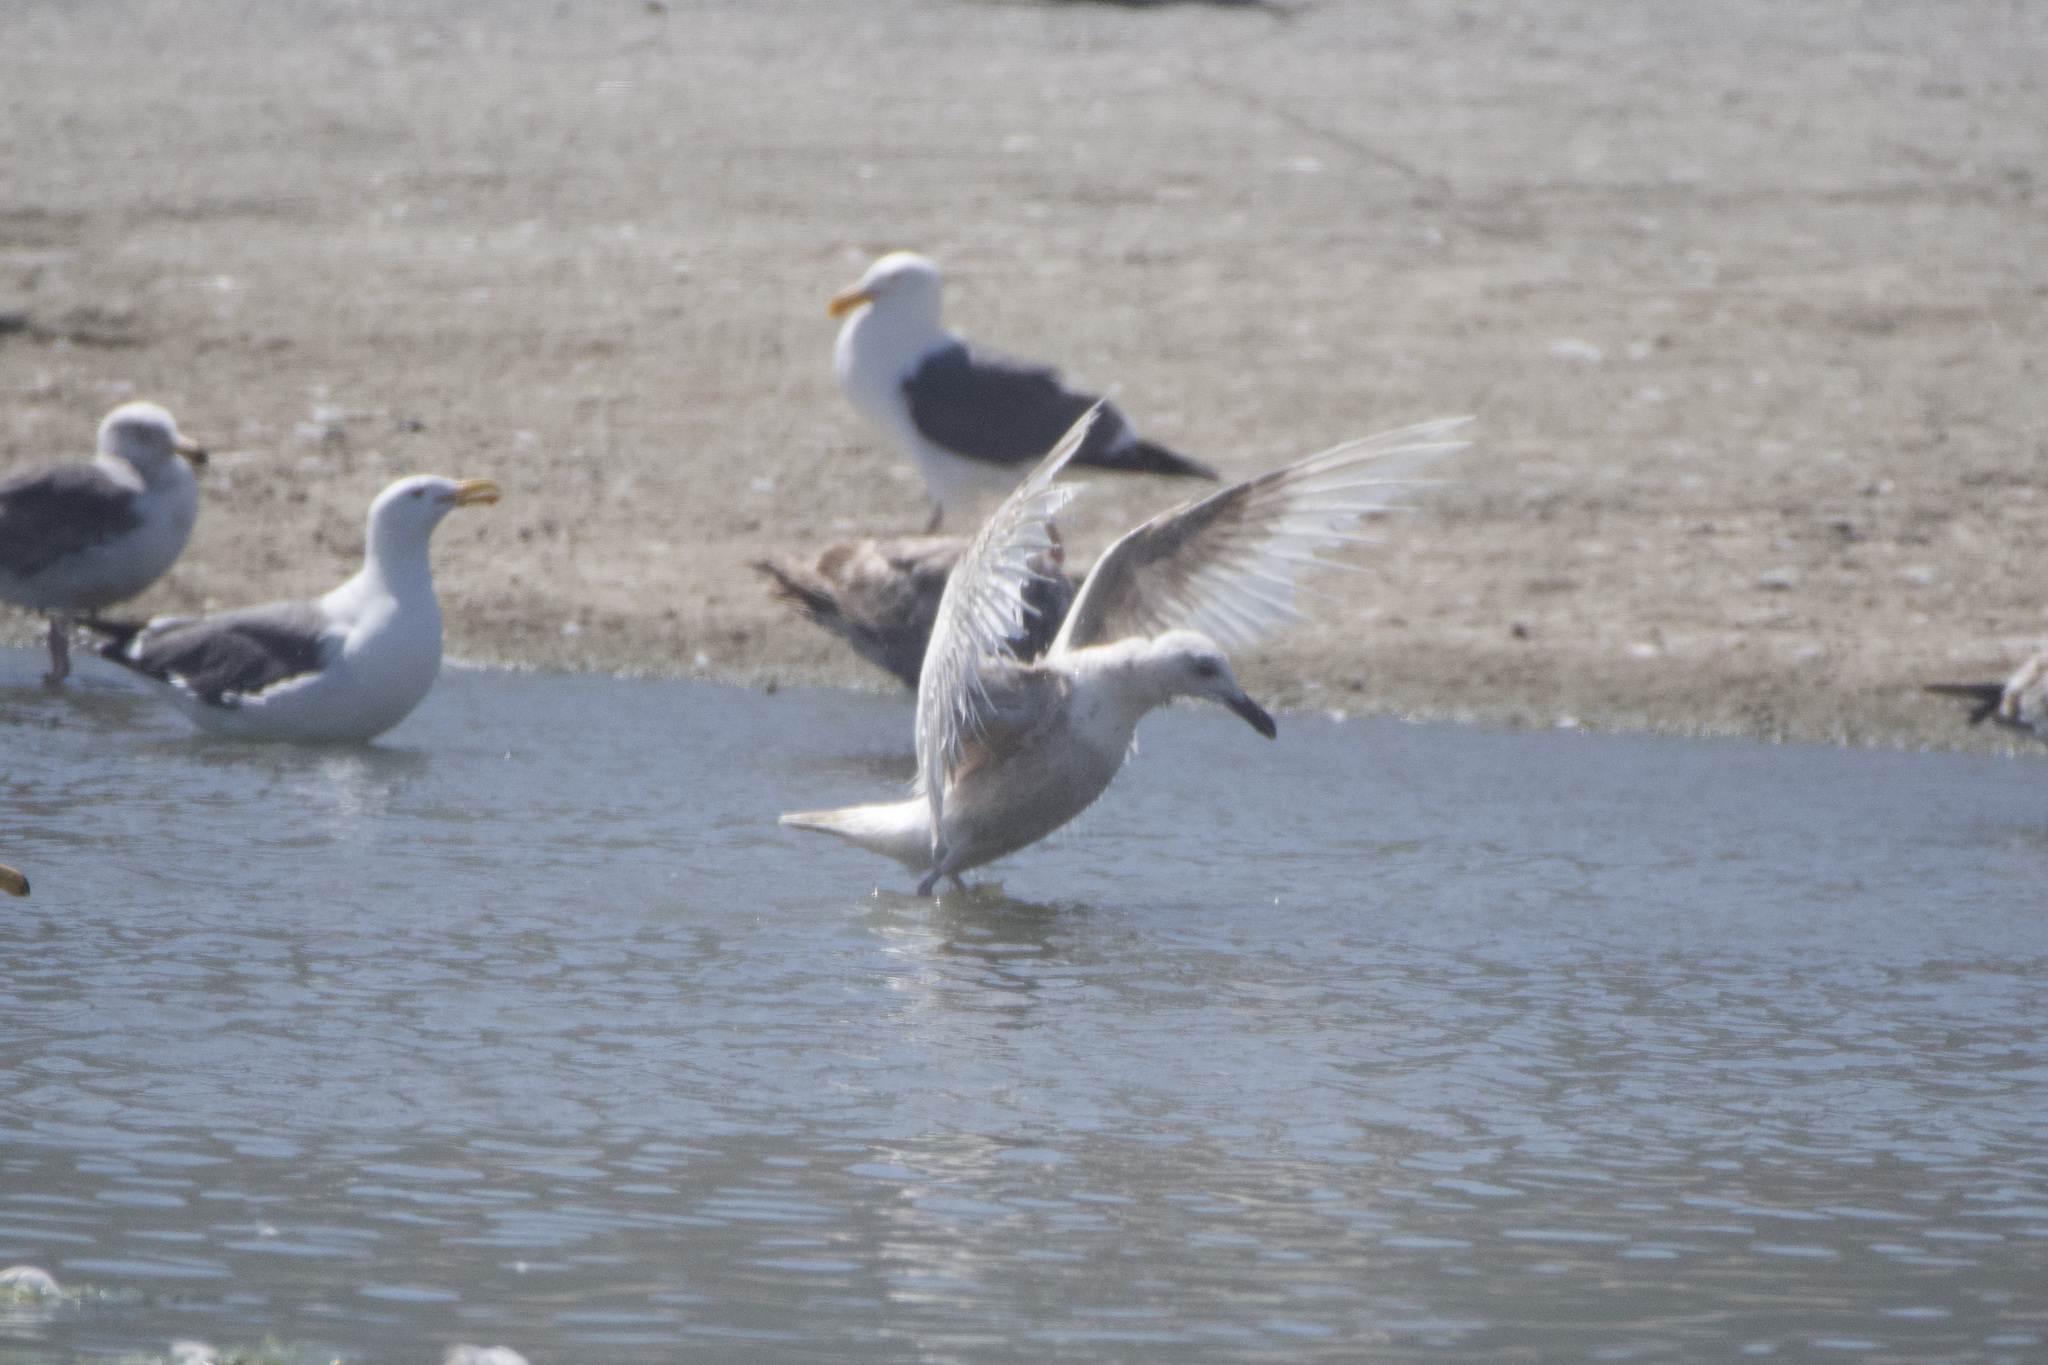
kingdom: Animalia
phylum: Chordata
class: Aves
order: Charadriiformes
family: Laridae
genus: Larus
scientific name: Larus glaucescens
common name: Glaucous-winged gull
